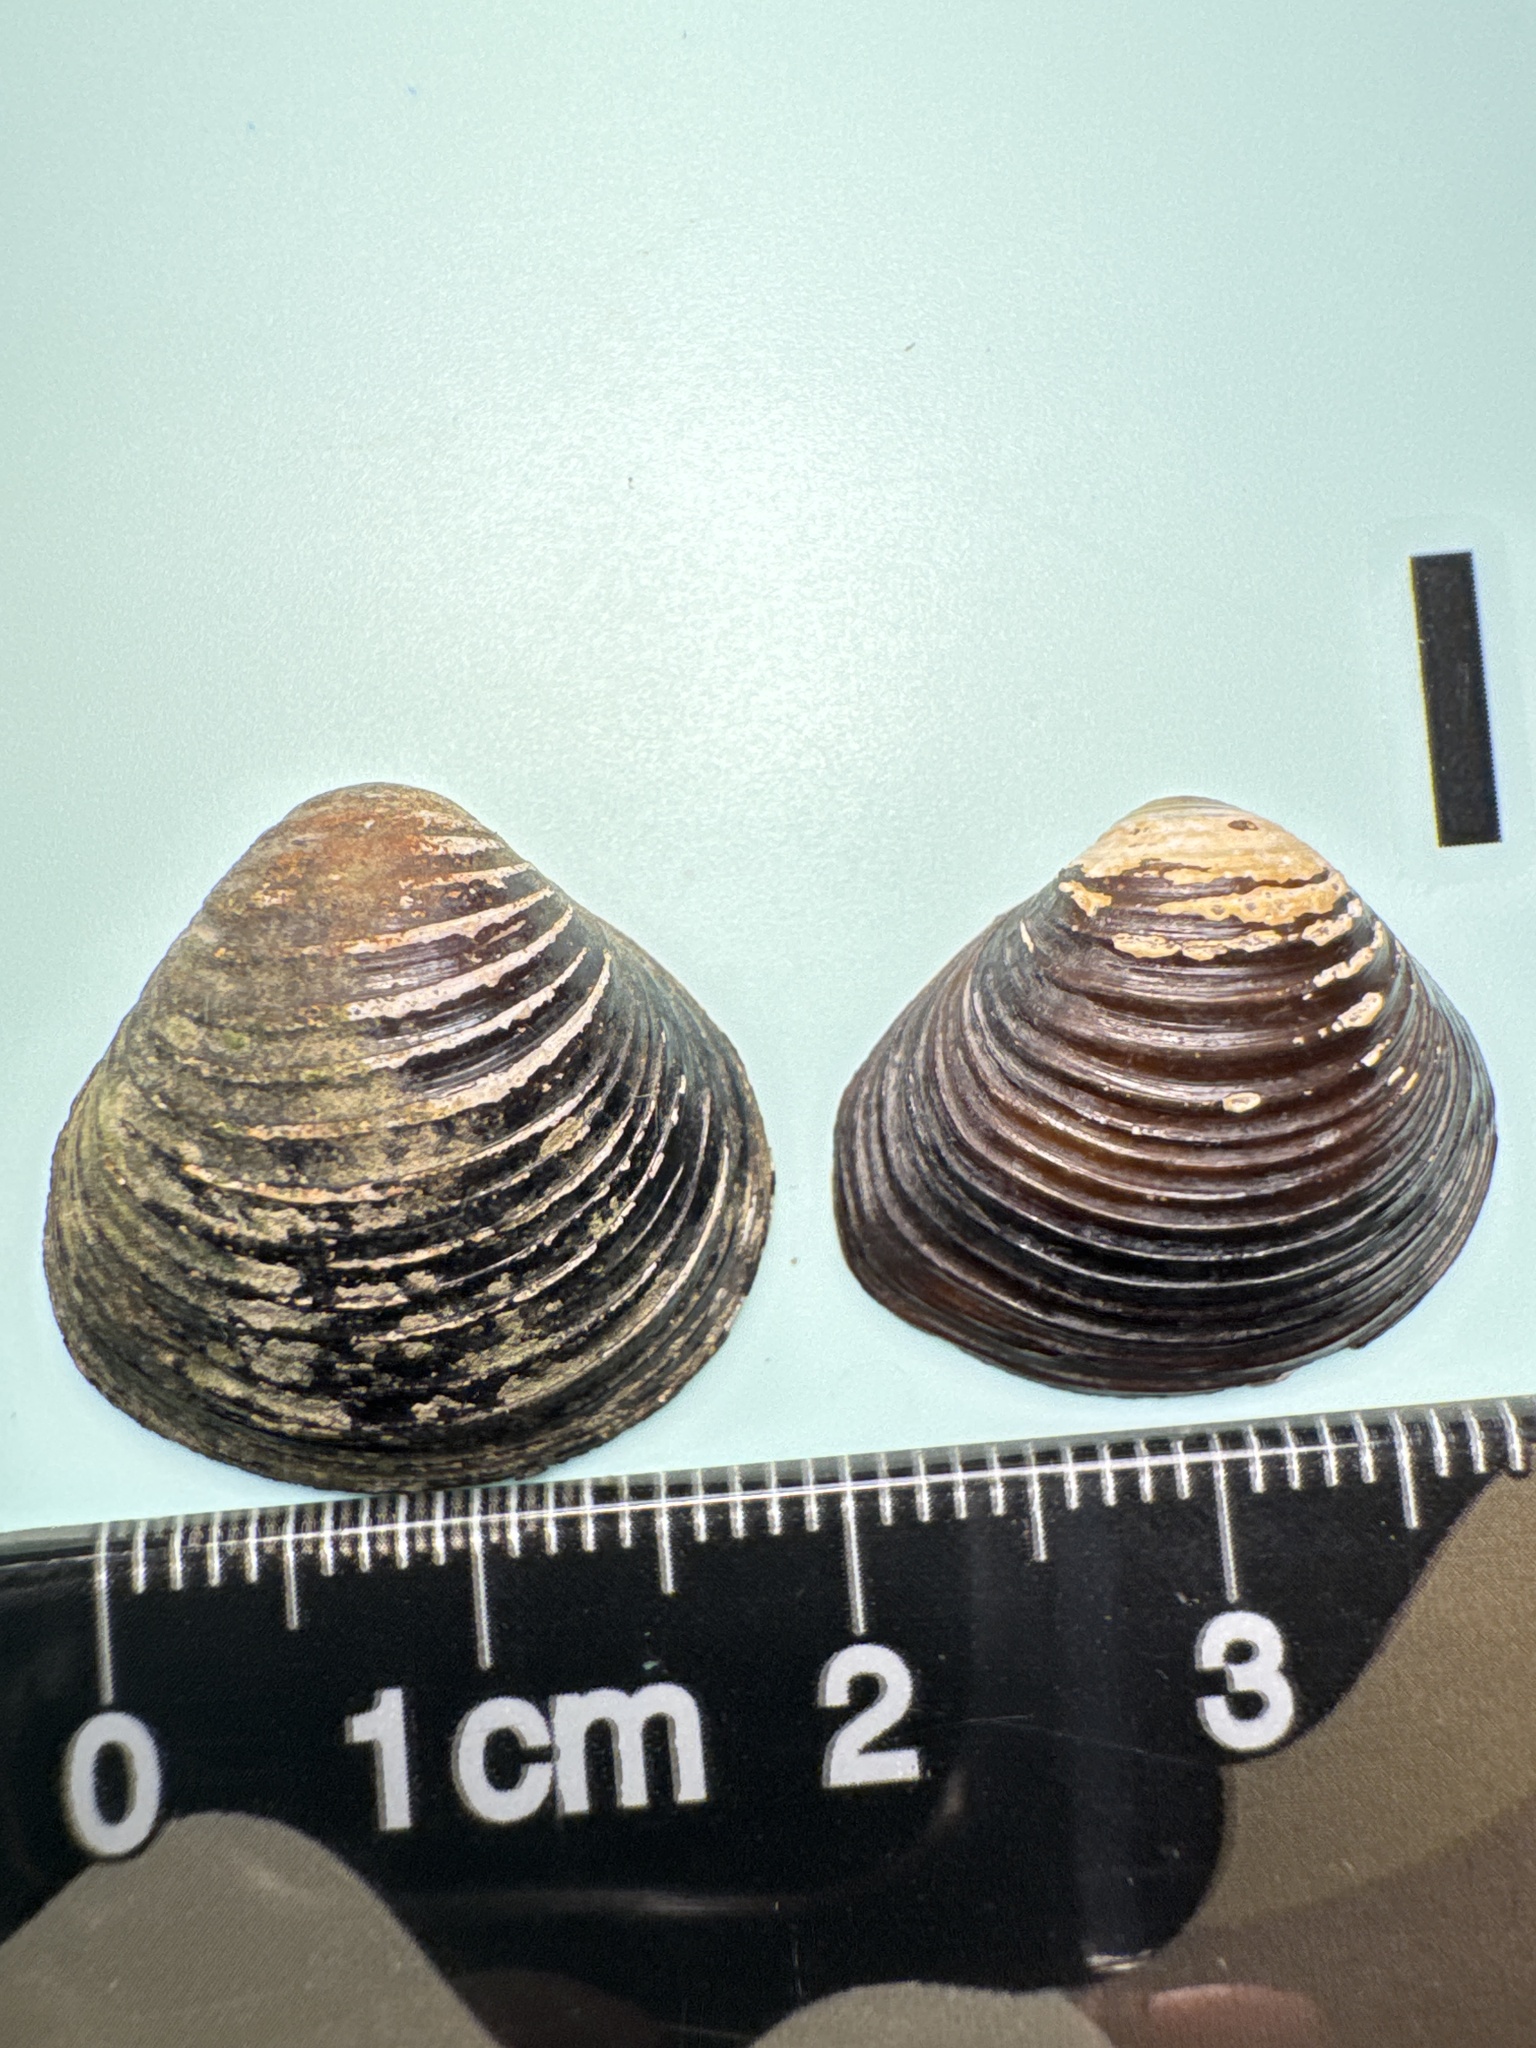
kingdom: Animalia
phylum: Mollusca
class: Bivalvia
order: Venerida
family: Cyrenidae
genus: Corbicula
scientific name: Corbicula fluminea
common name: Asian clam
